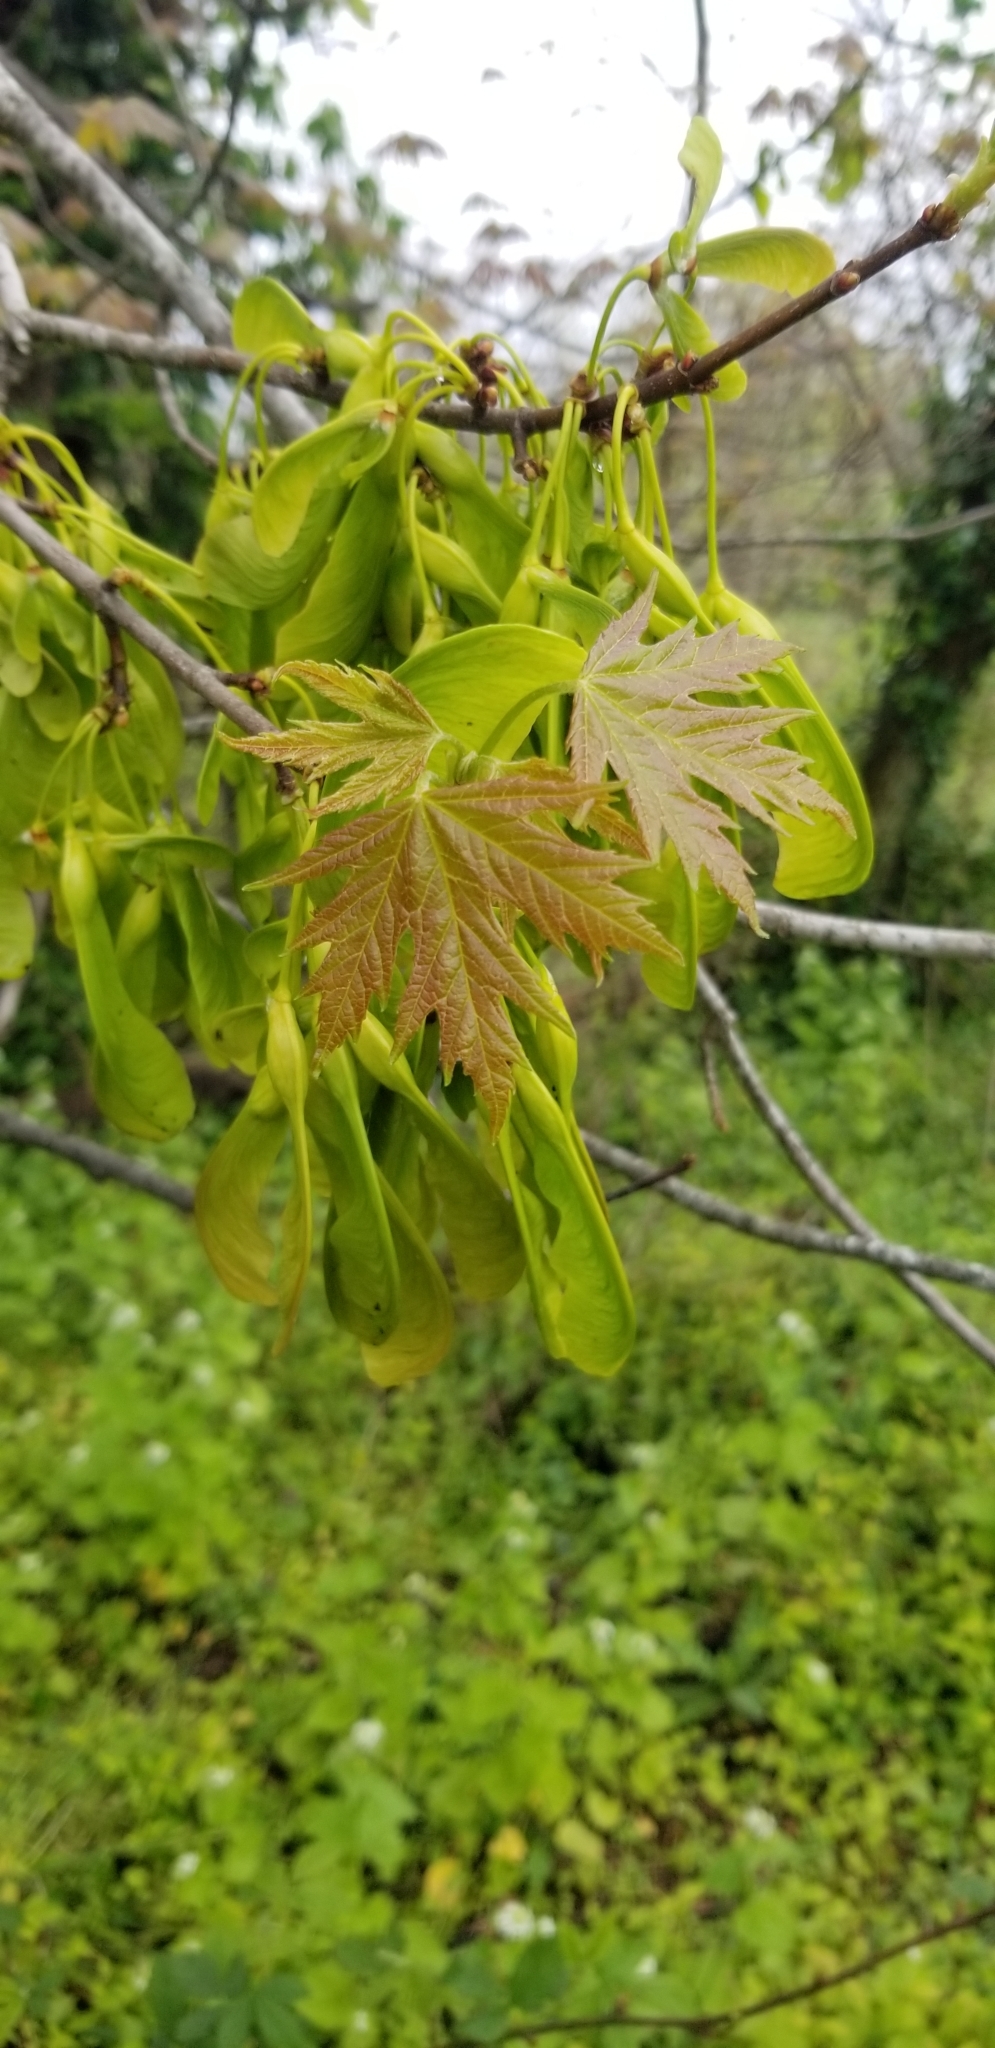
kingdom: Plantae
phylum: Tracheophyta
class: Magnoliopsida
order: Sapindales
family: Sapindaceae
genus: Acer
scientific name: Acer saccharinum
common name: Silver maple
